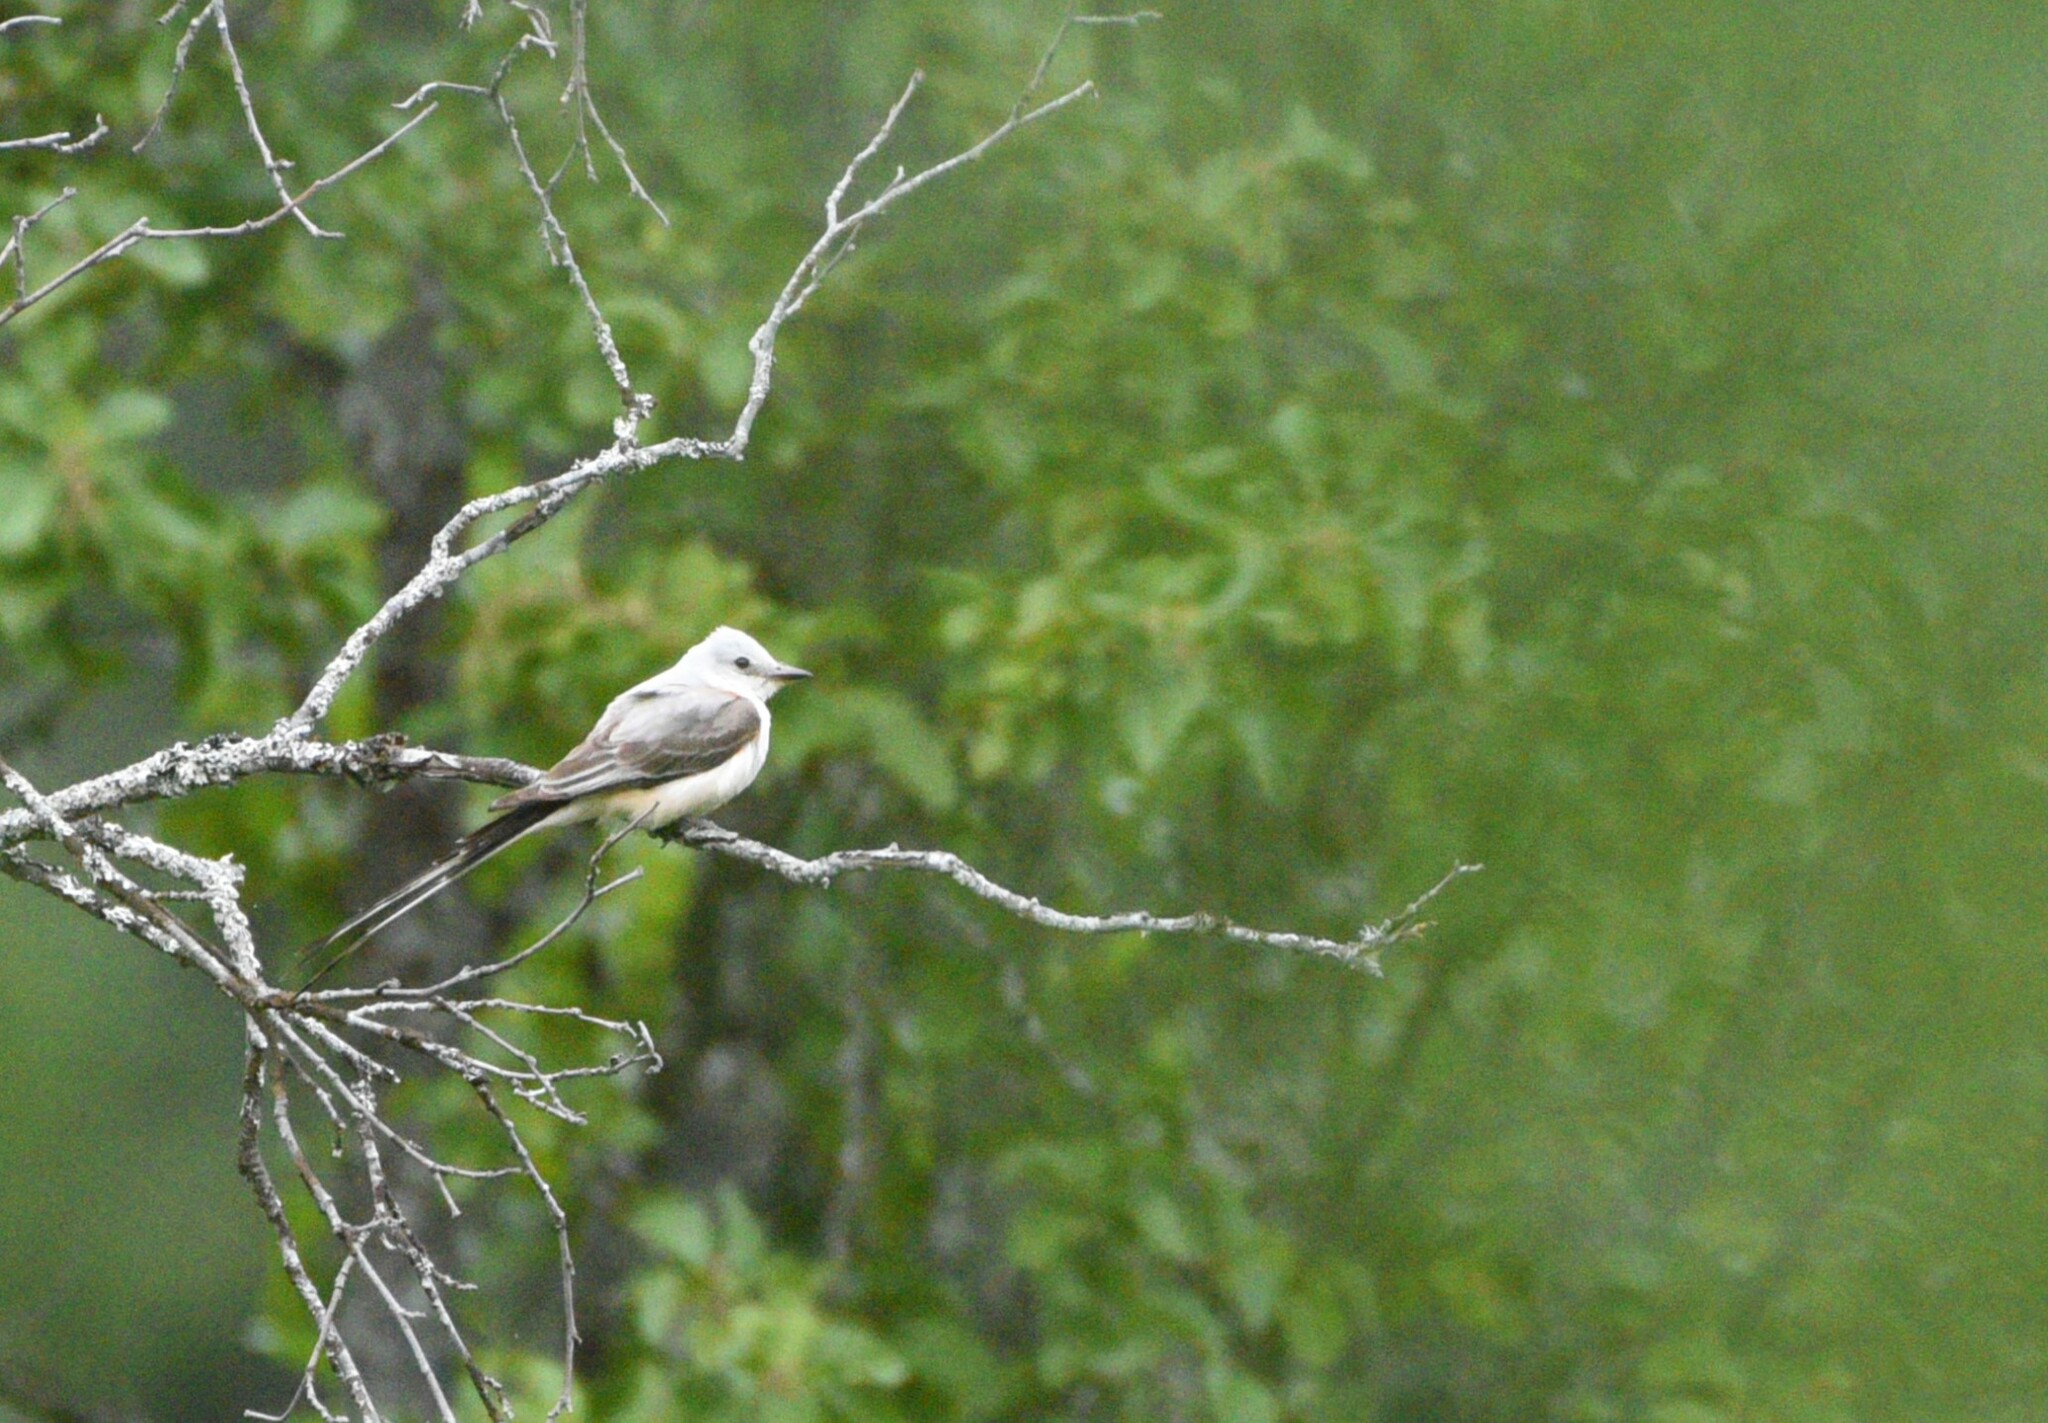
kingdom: Animalia
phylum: Chordata
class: Aves
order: Passeriformes
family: Tyrannidae
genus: Tyrannus
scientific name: Tyrannus forficatus
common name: Scissor-tailed flycatcher
